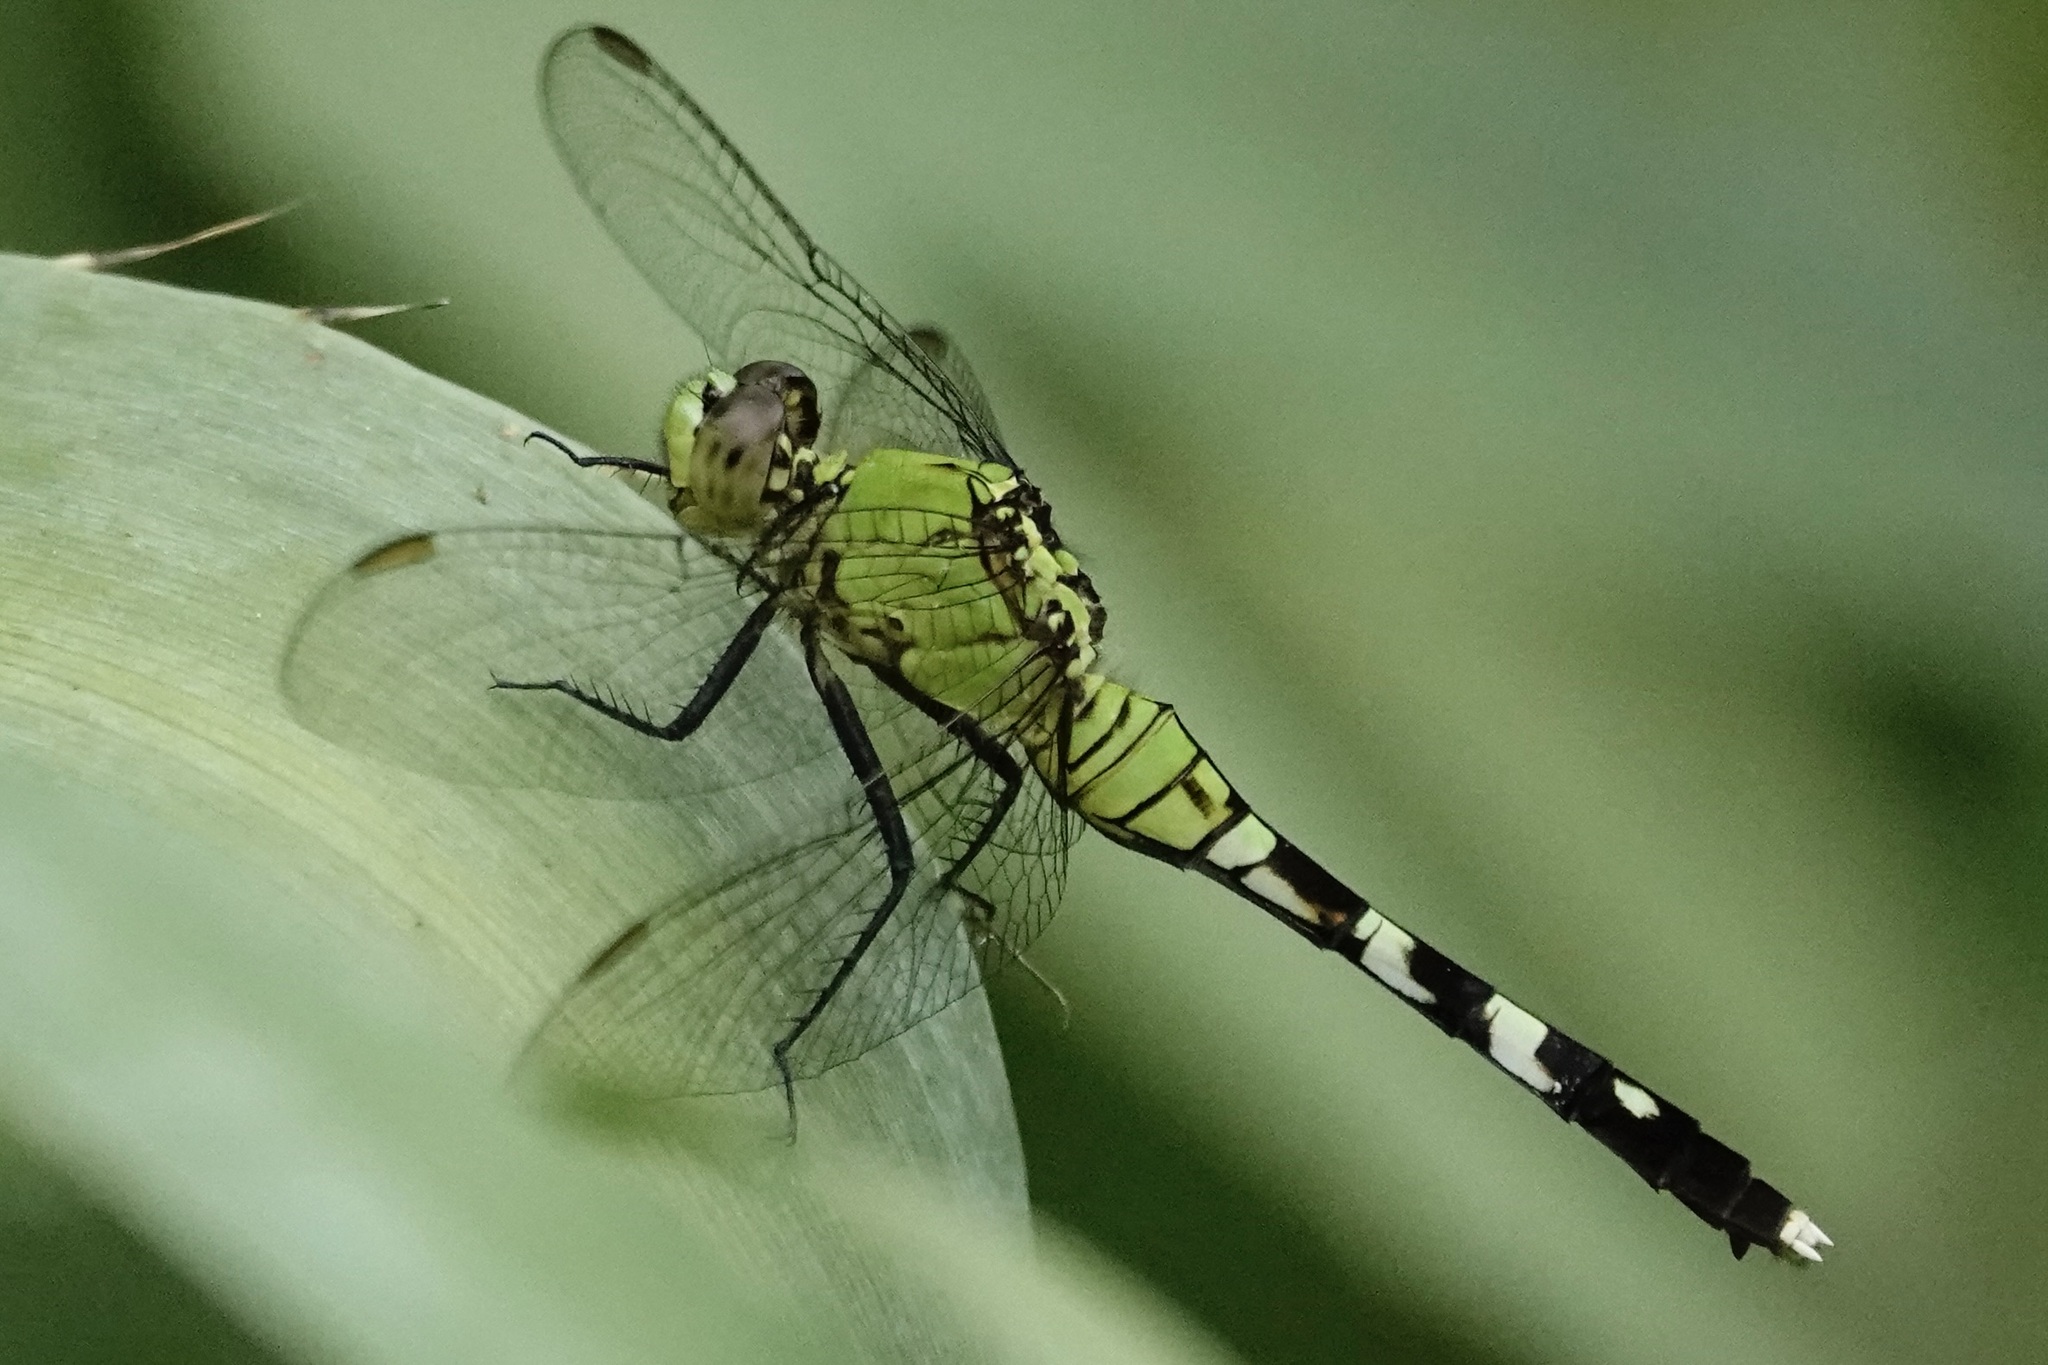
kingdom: Animalia
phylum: Arthropoda
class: Insecta
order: Odonata
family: Libellulidae
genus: Erythemis
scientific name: Erythemis simplicicollis
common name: Eastern pondhawk
